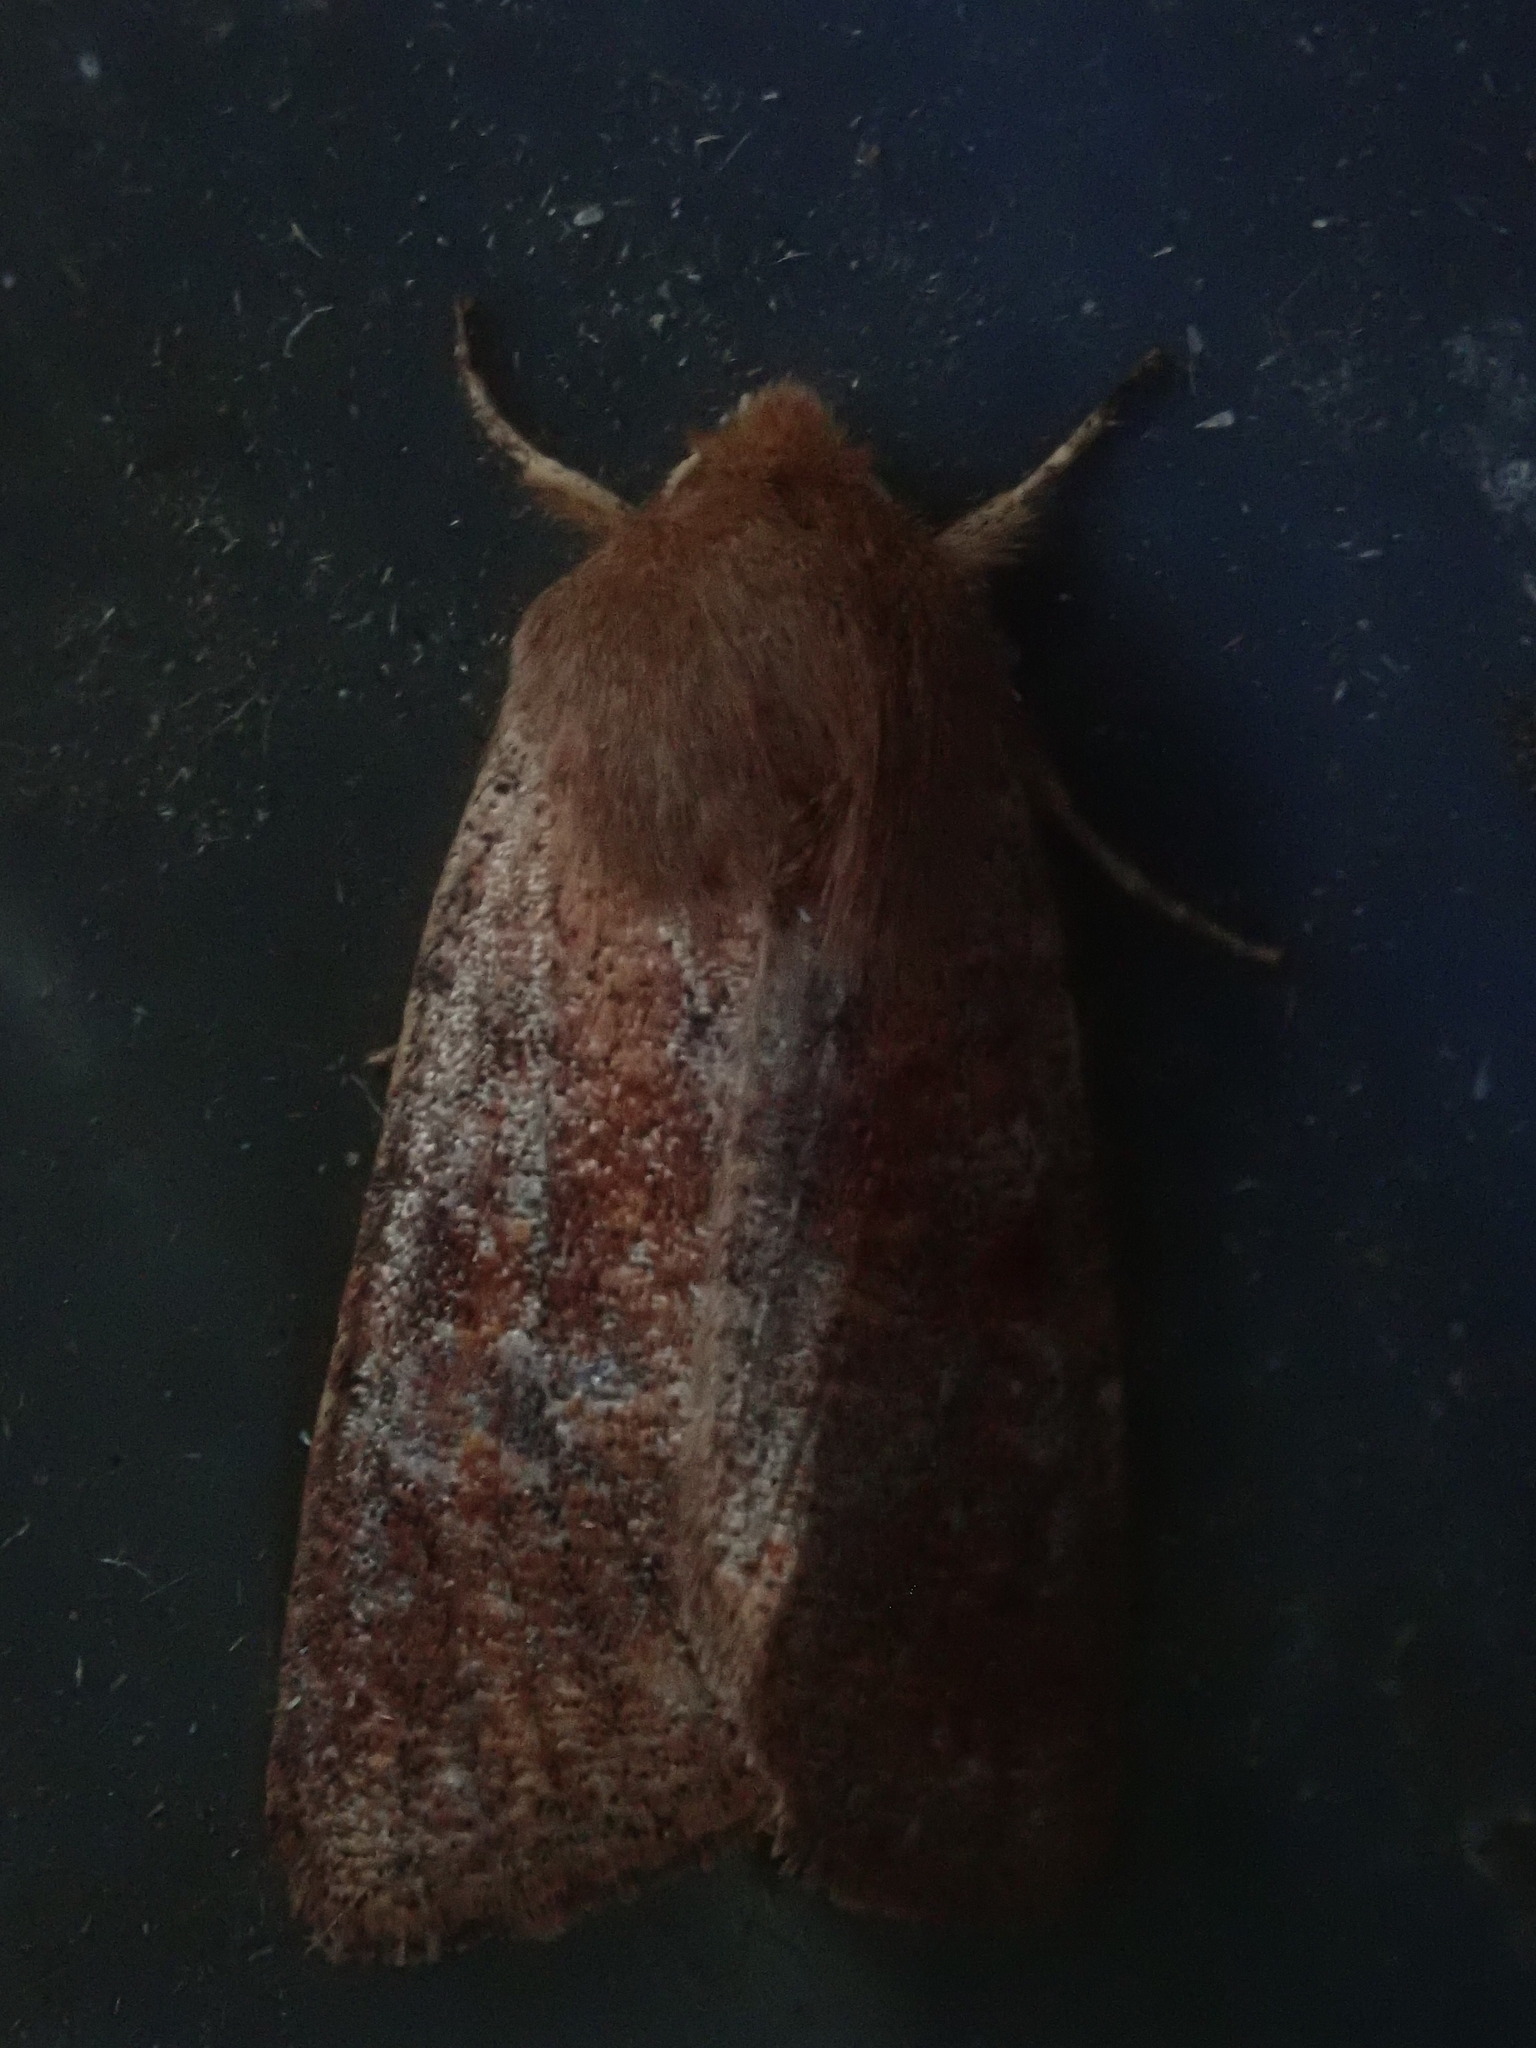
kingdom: Animalia
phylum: Arthropoda
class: Insecta
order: Lepidoptera
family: Noctuidae
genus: Orthosia
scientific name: Orthosia rubescens
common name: Ruby quaker
